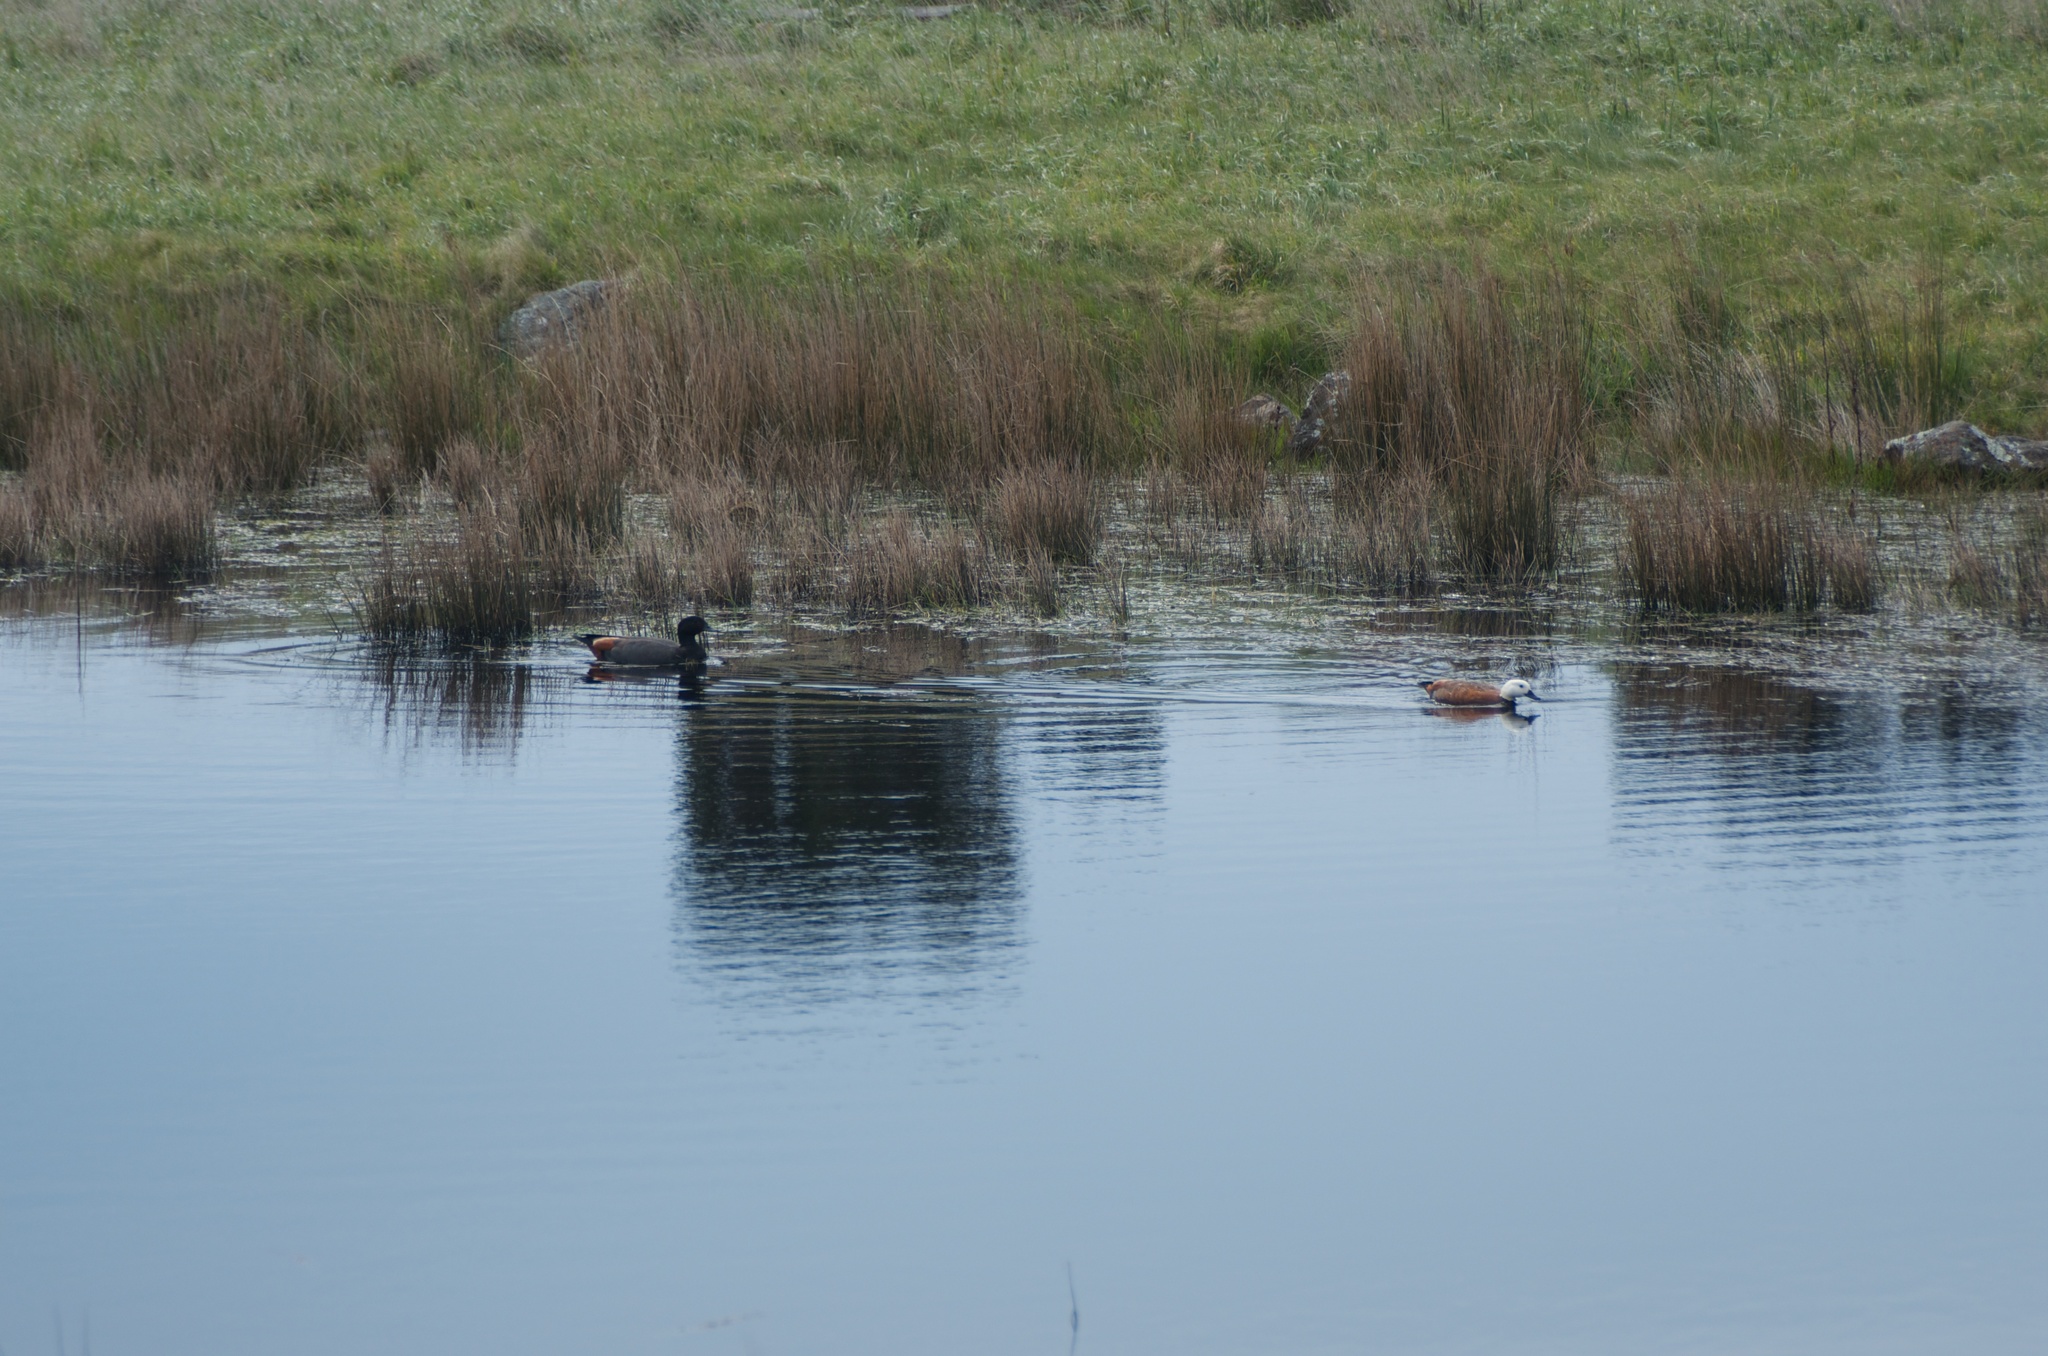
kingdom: Animalia
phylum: Chordata
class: Aves
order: Anseriformes
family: Anatidae
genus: Tadorna
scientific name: Tadorna variegata
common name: Paradise shelduck
